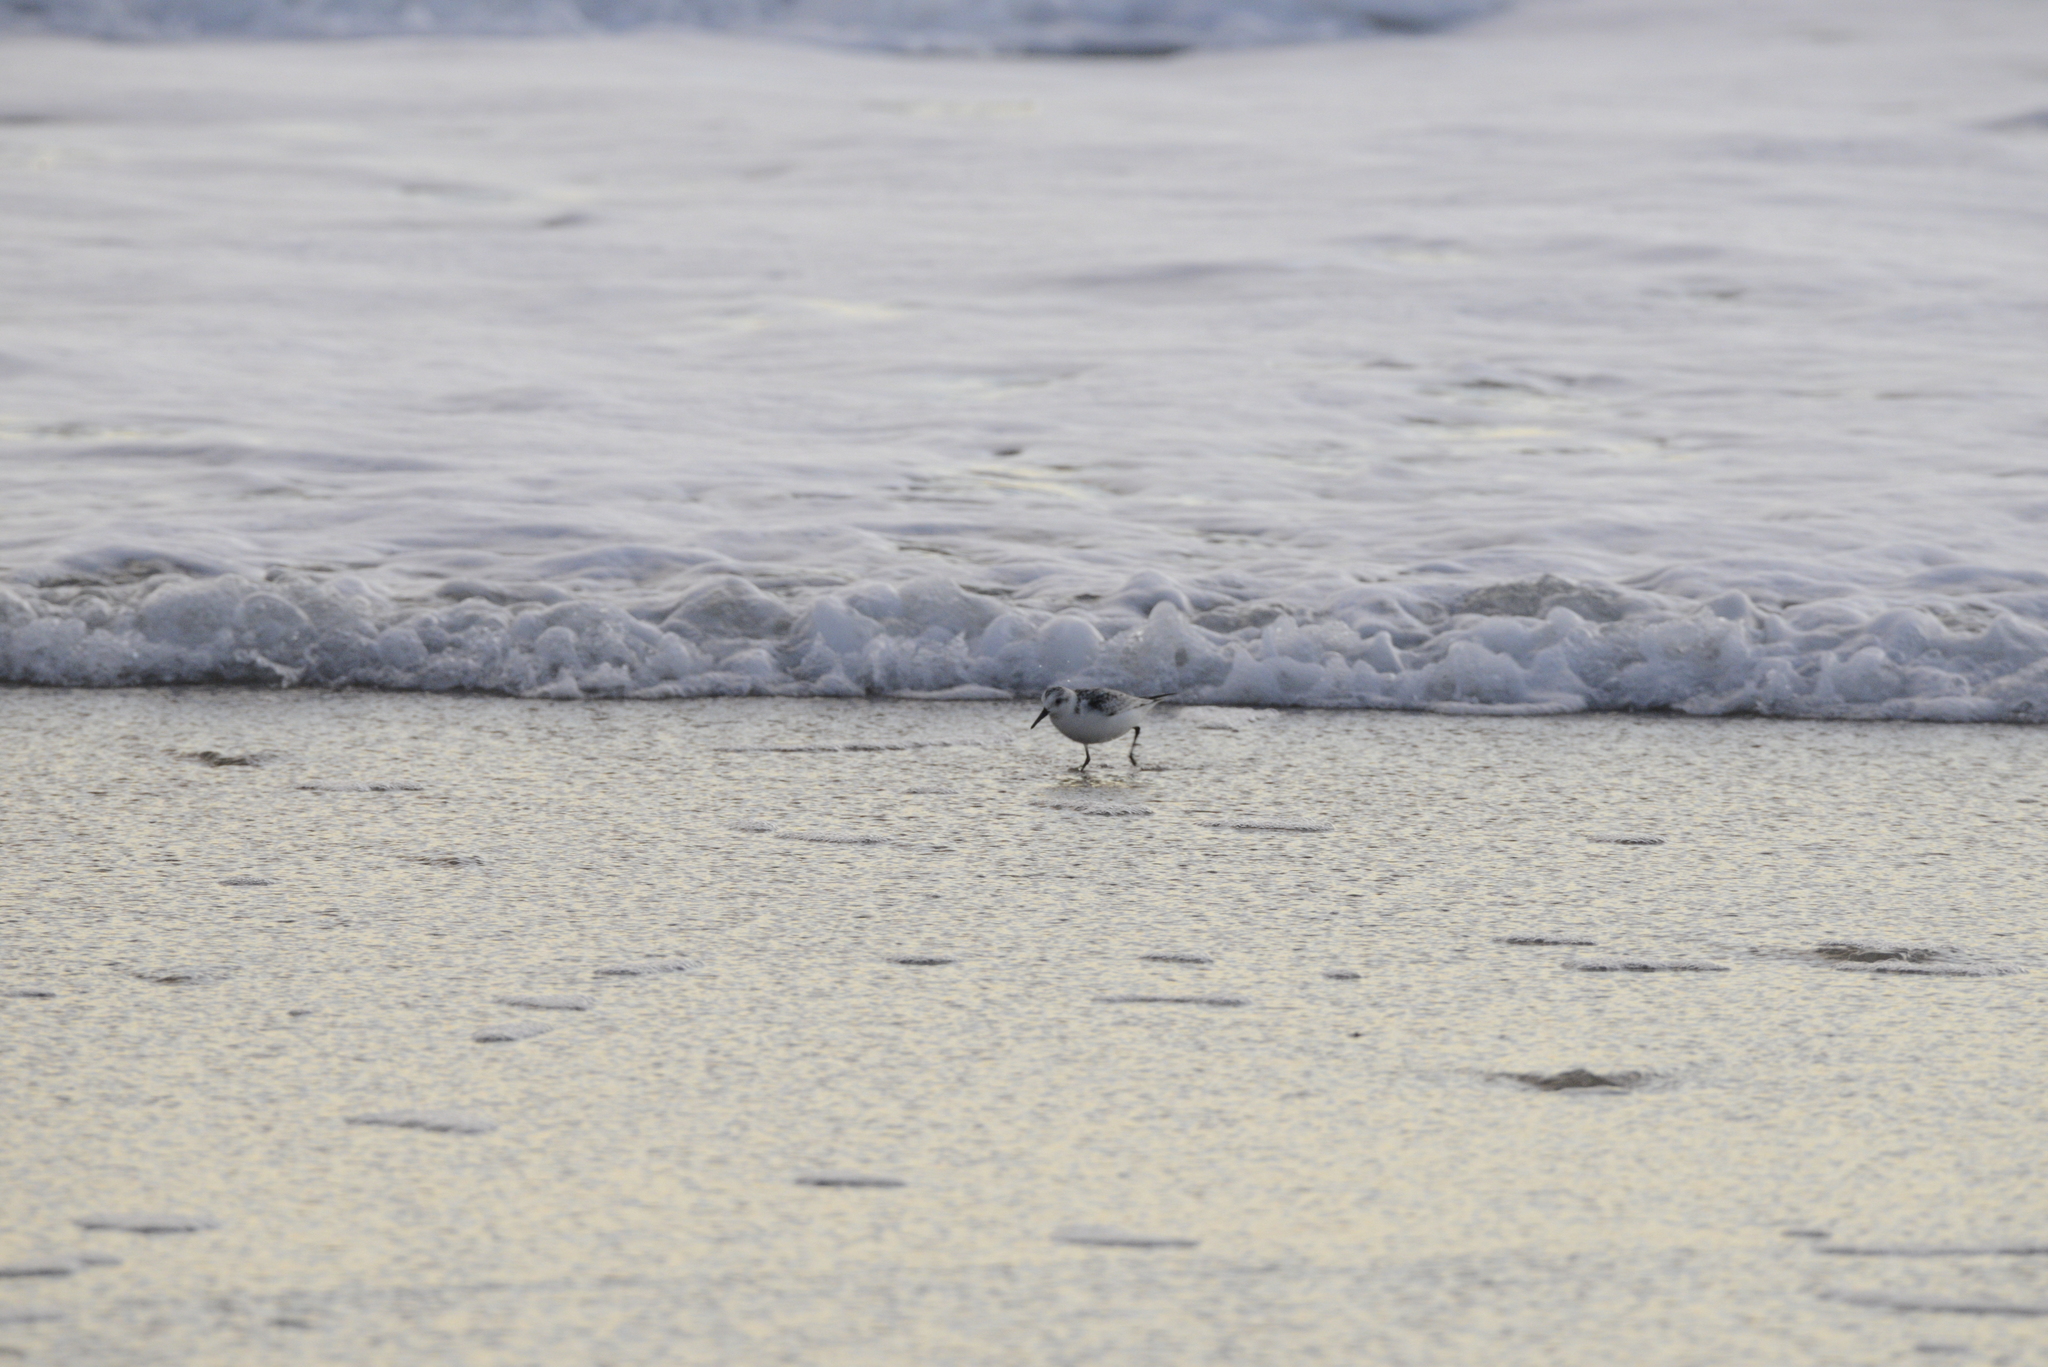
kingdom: Animalia
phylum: Chordata
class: Aves
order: Charadriiformes
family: Scolopacidae
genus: Calidris
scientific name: Calidris alba
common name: Sanderling
